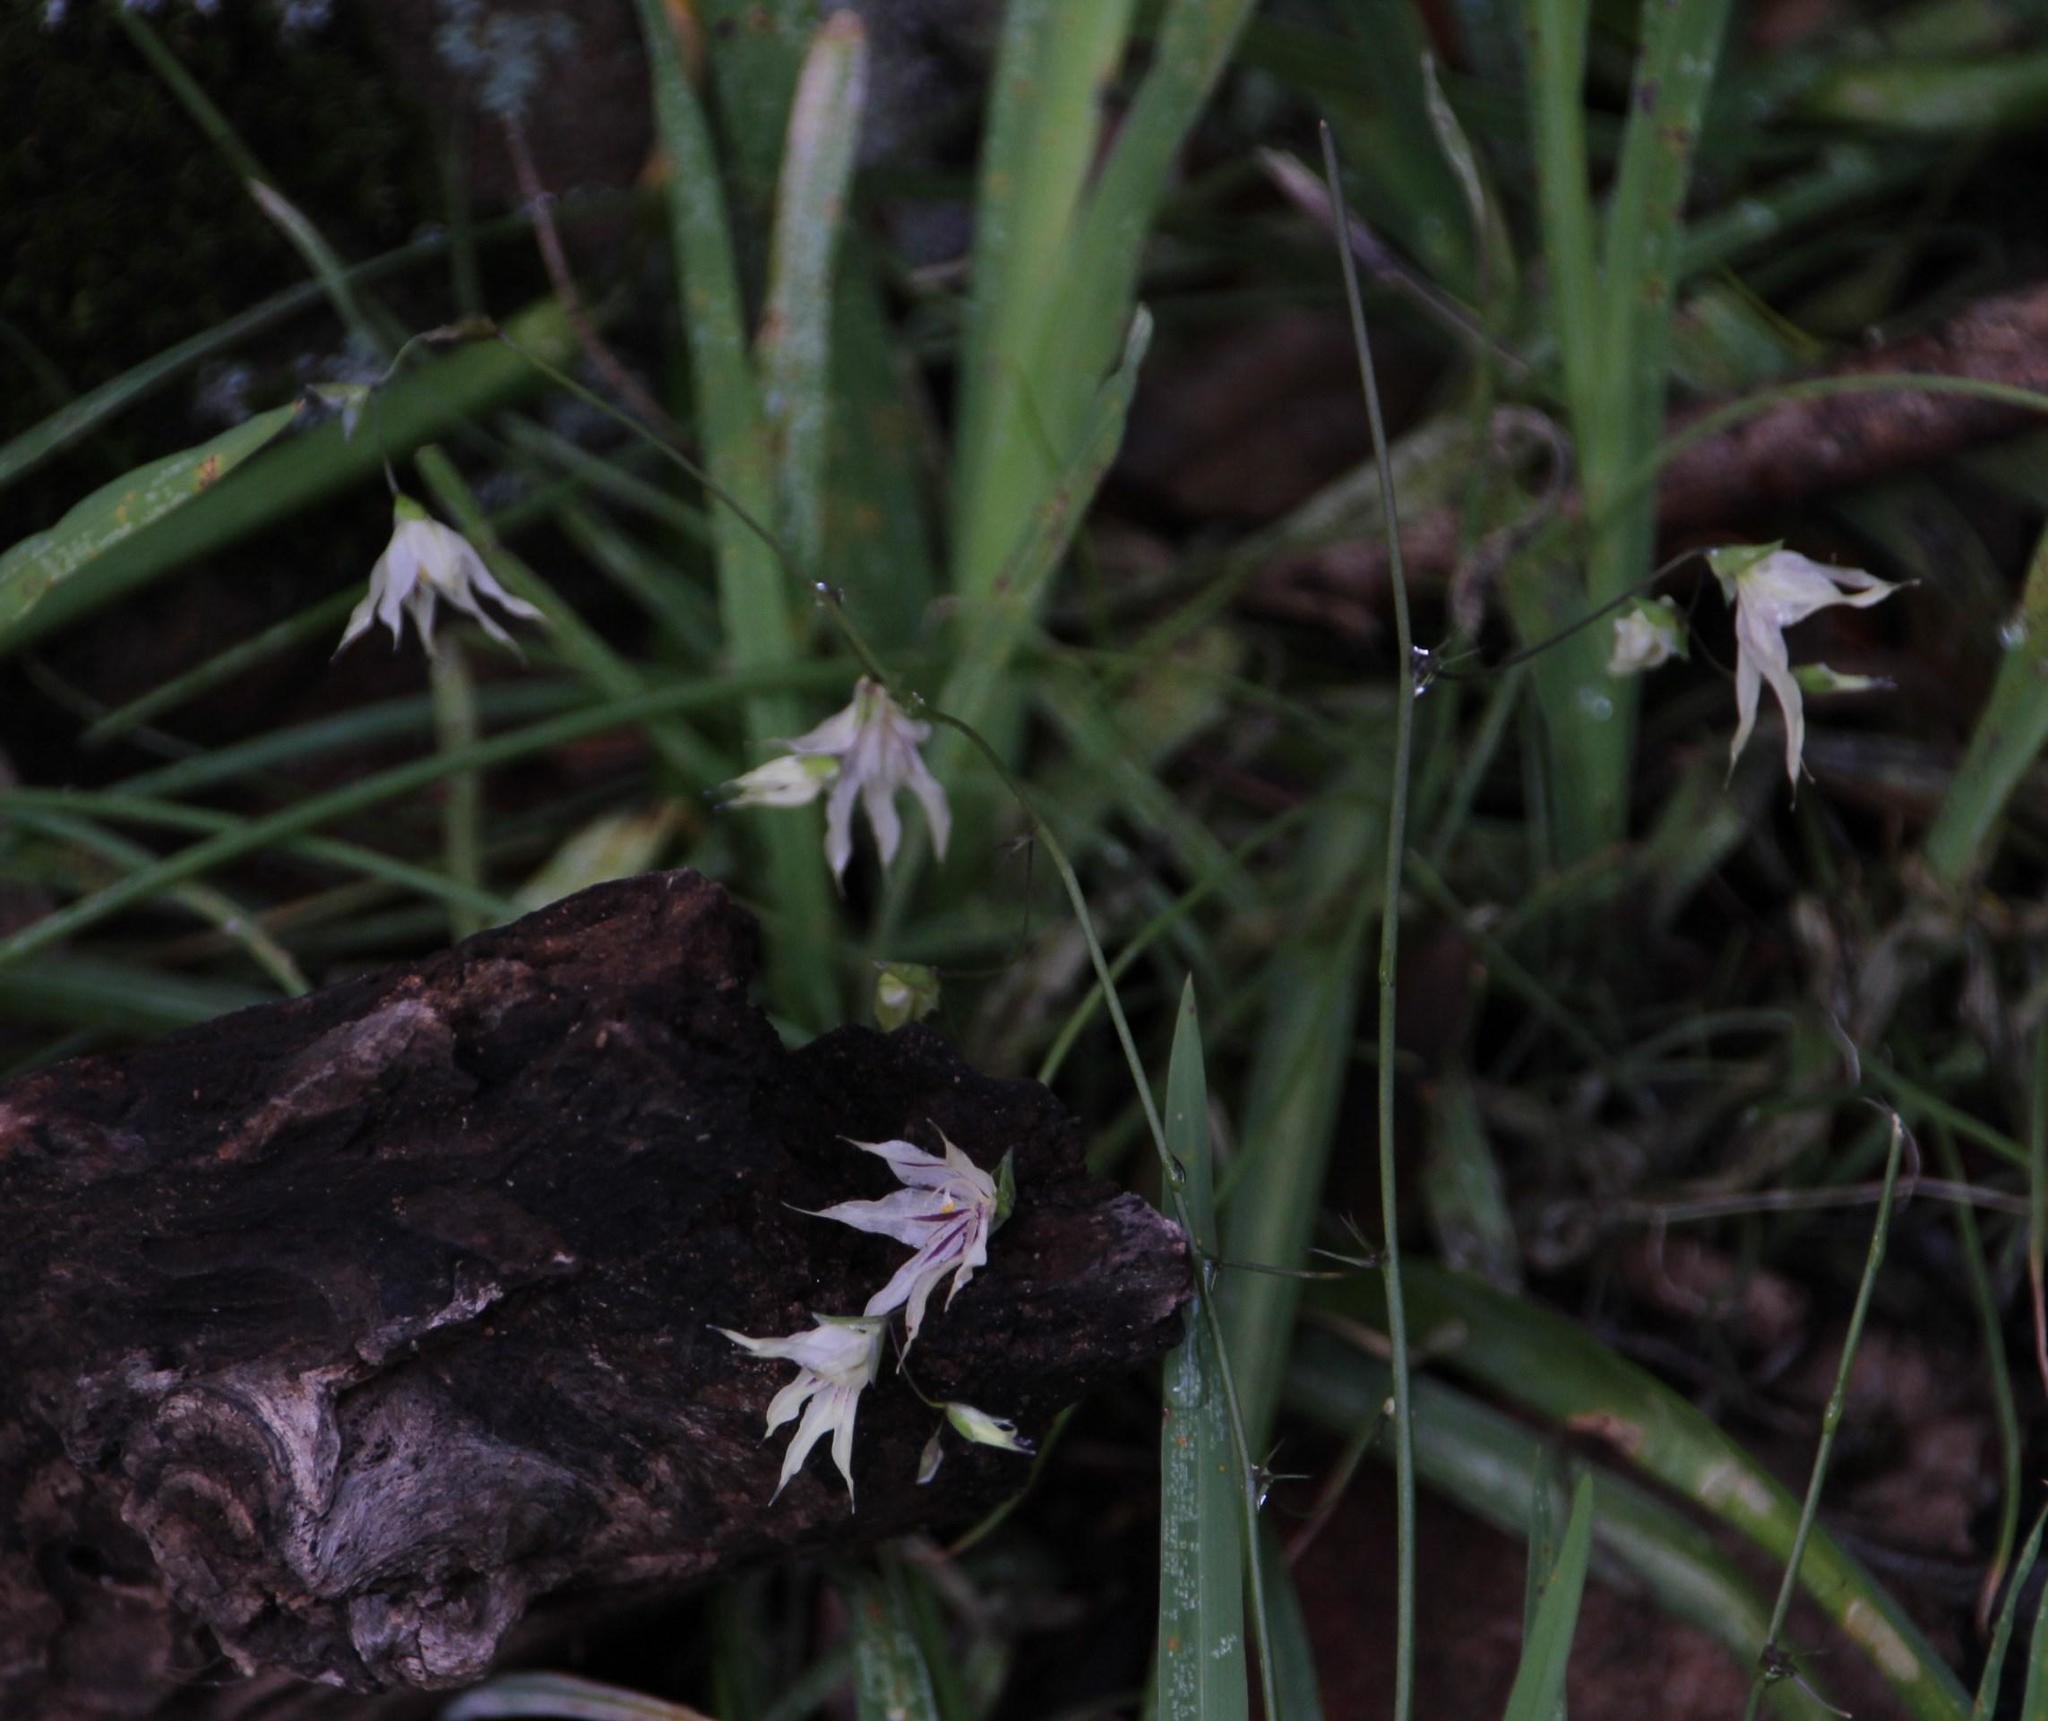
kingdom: Plantae
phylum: Tracheophyta
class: Liliopsida
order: Asparagales
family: Iridaceae
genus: Melasphaerula
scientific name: Melasphaerula graminea
